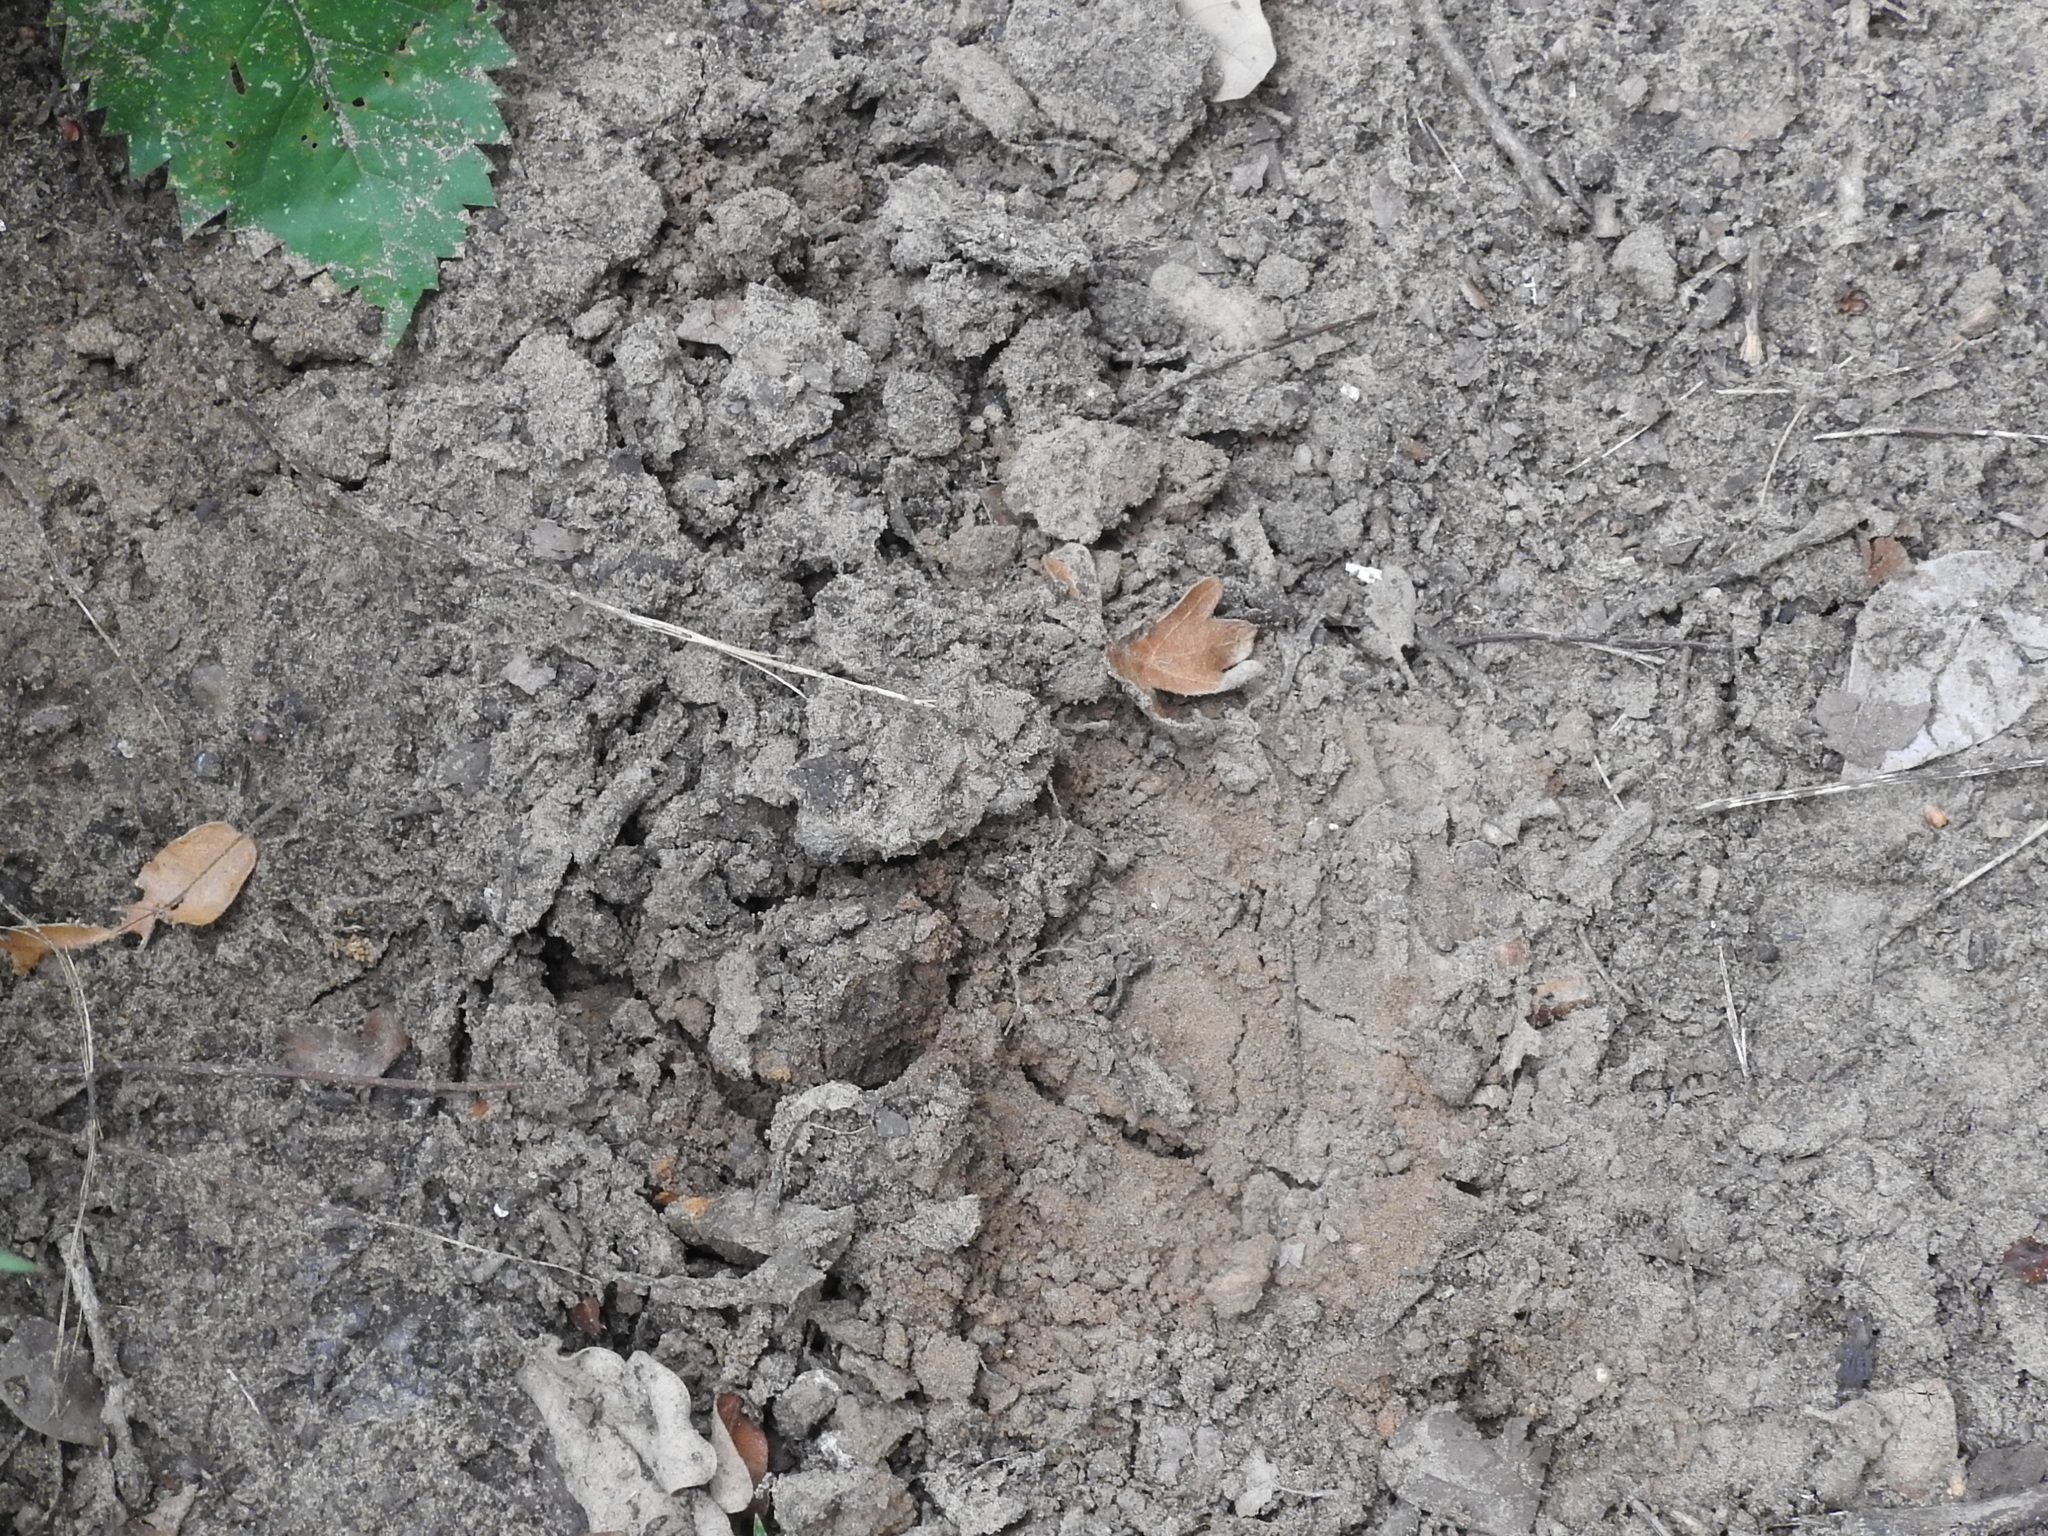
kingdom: Animalia
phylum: Chordata
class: Mammalia
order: Soricomorpha
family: Talpidae
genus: Scalopus
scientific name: Scalopus aquaticus
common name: Eastern mole
